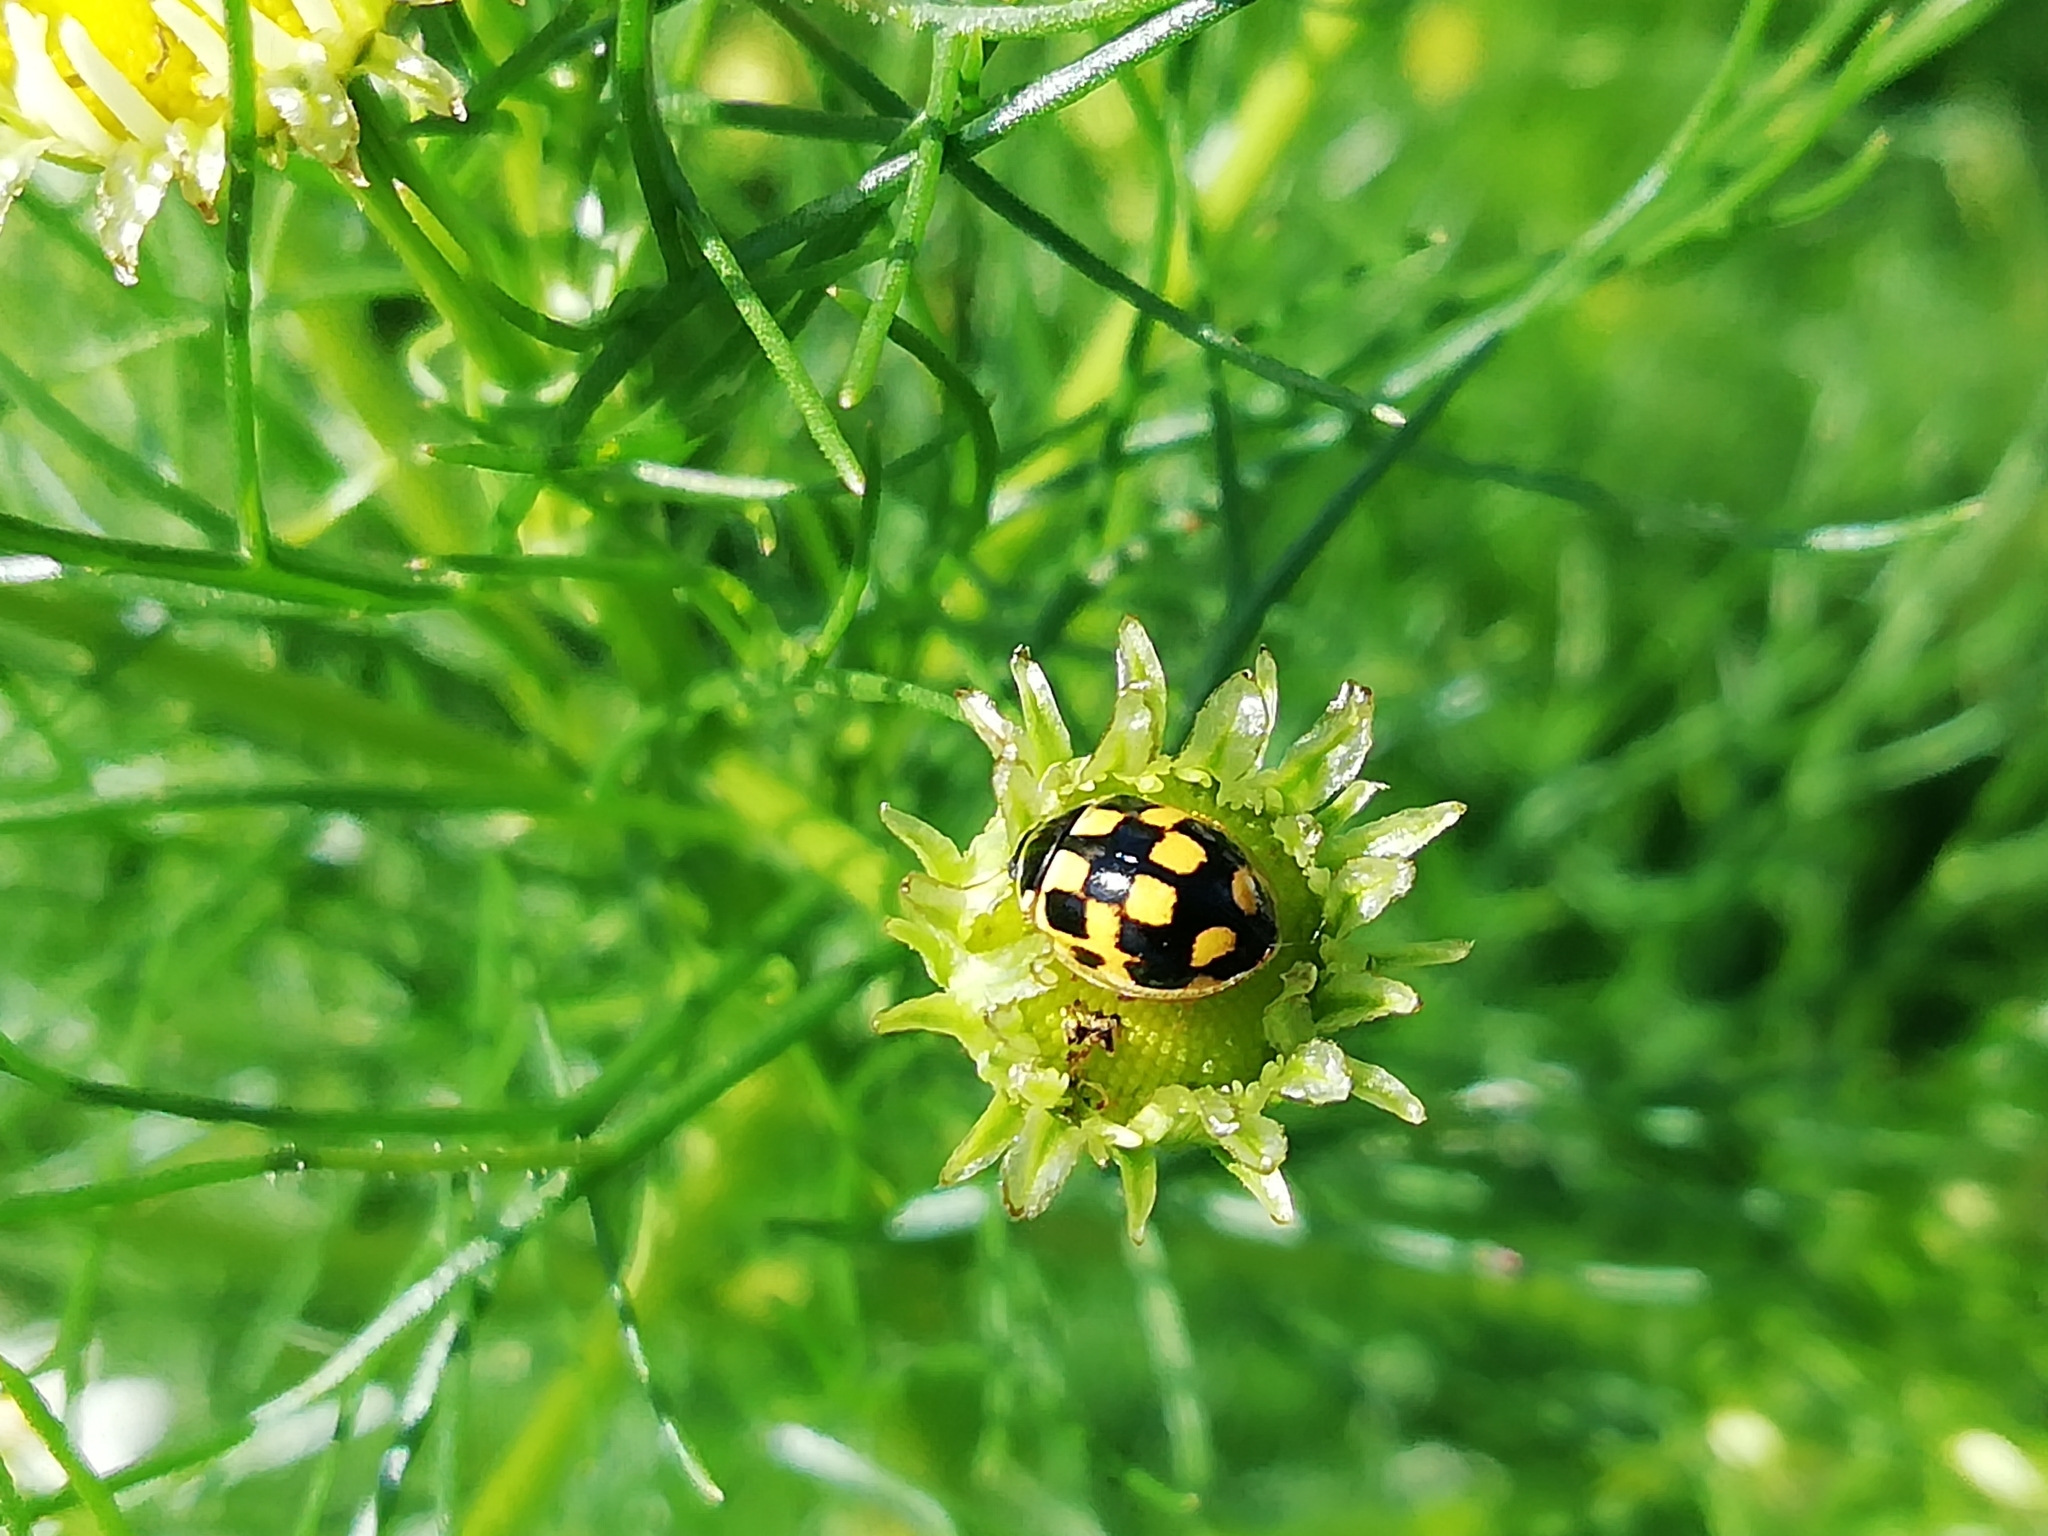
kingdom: Animalia
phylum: Arthropoda
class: Insecta
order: Coleoptera
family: Coccinellidae
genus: Propylaea
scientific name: Propylaea quatuordecimpunctata
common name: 14-spotted ladybird beetle
